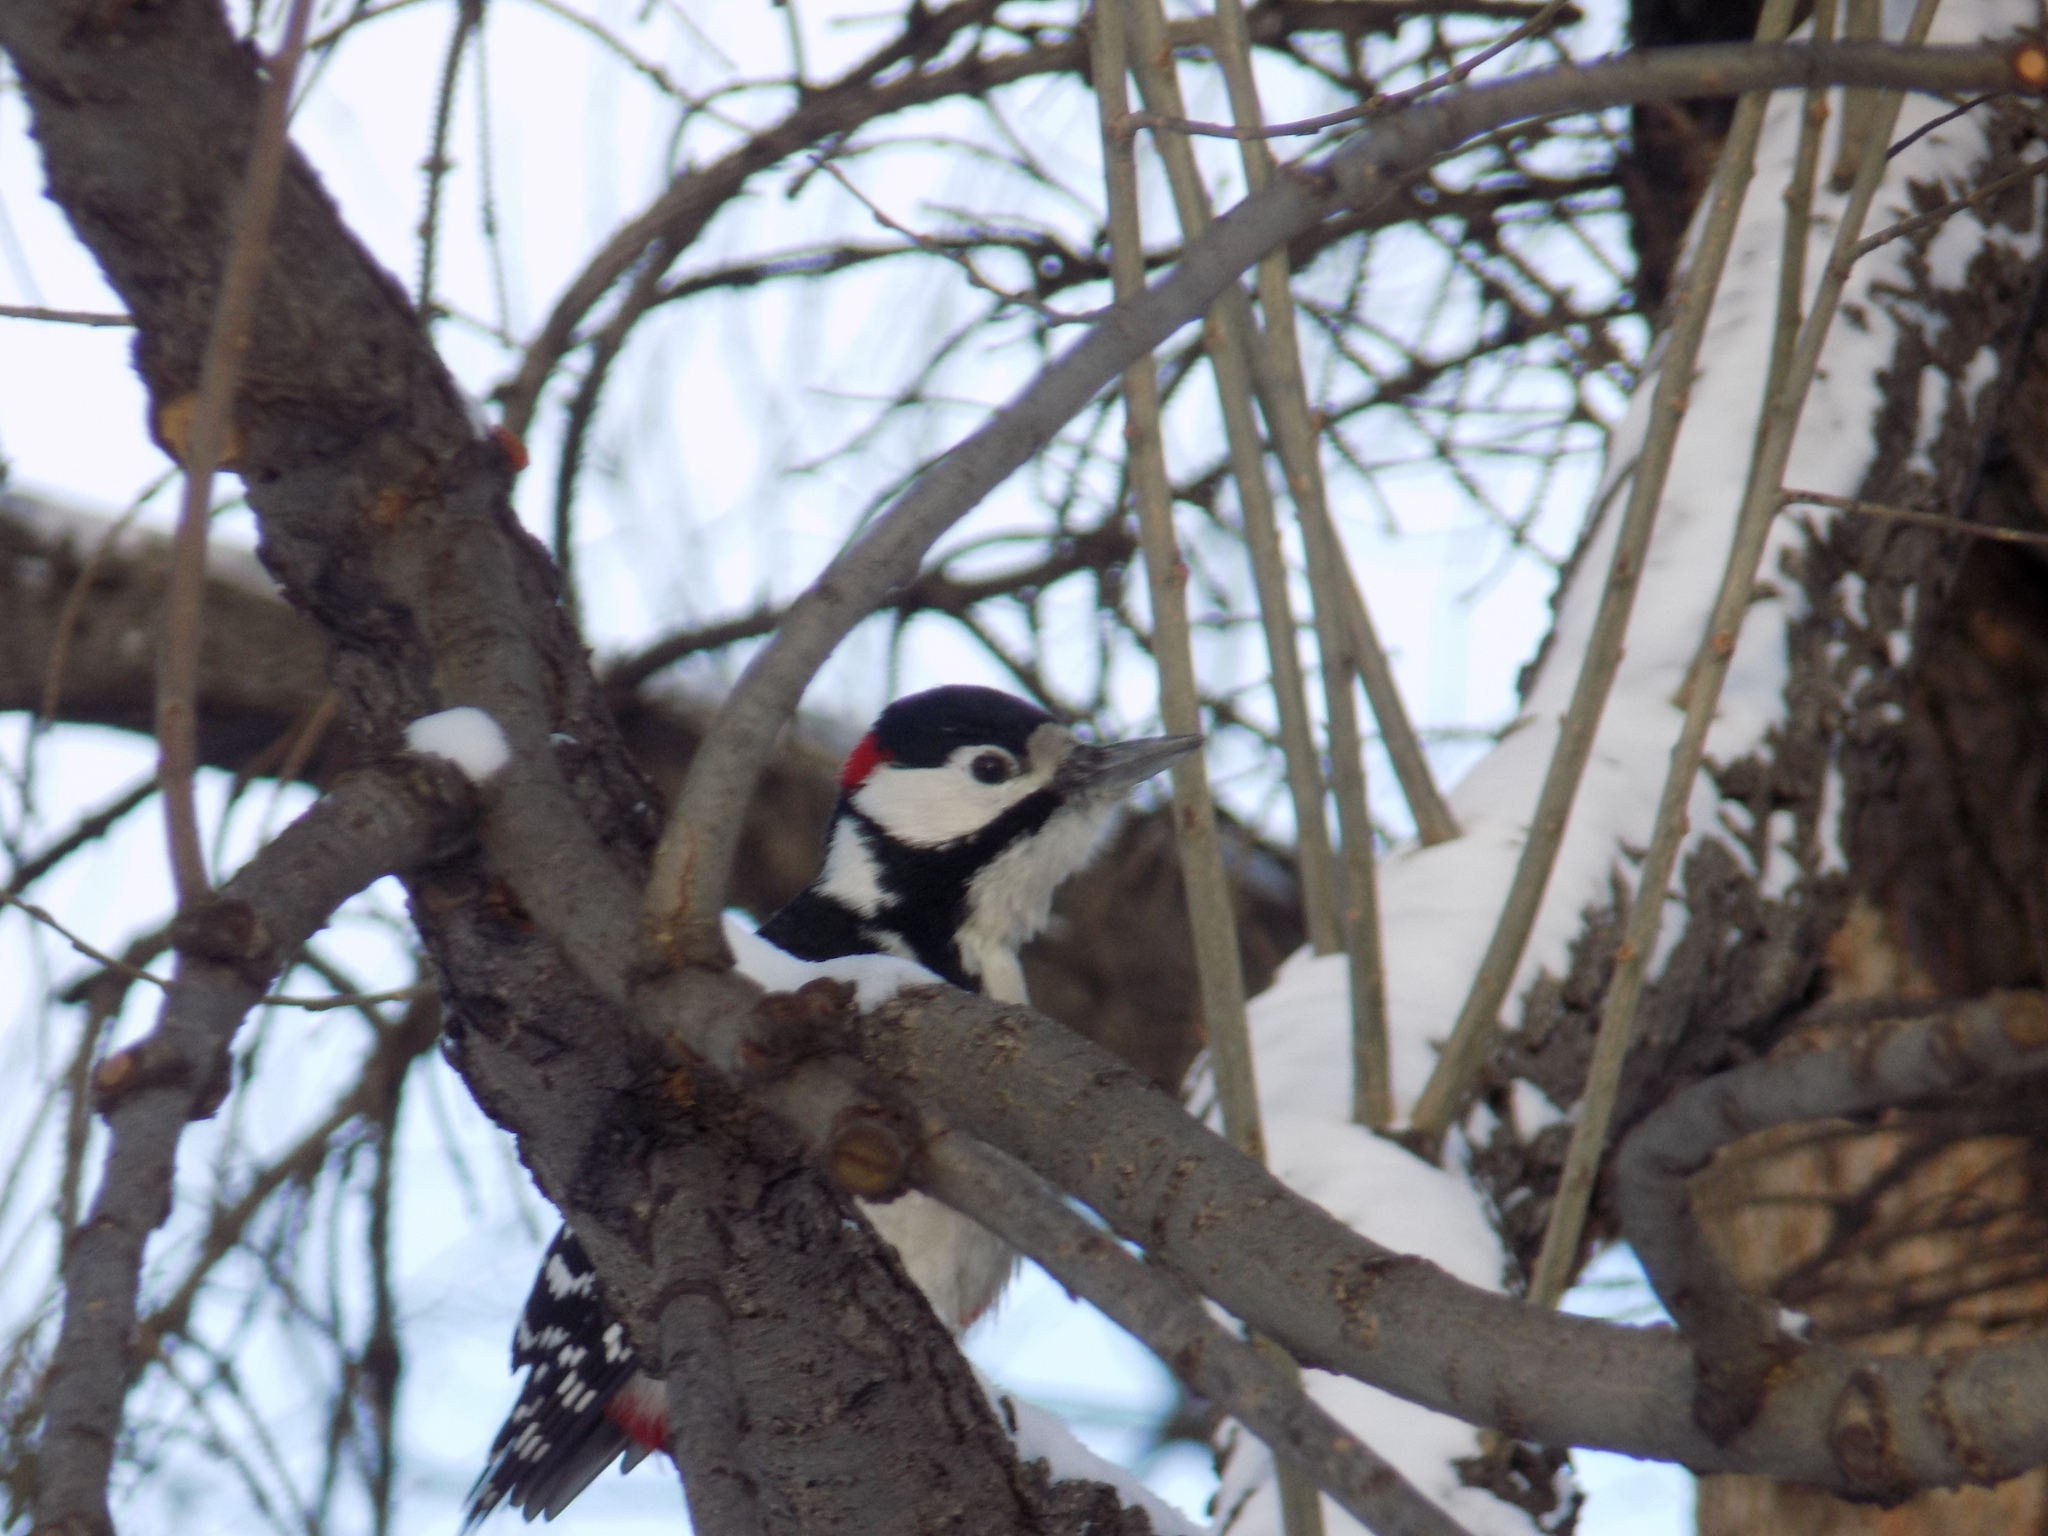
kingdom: Animalia
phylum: Chordata
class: Aves
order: Piciformes
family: Picidae
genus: Dendrocopos
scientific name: Dendrocopos major
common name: Great spotted woodpecker
